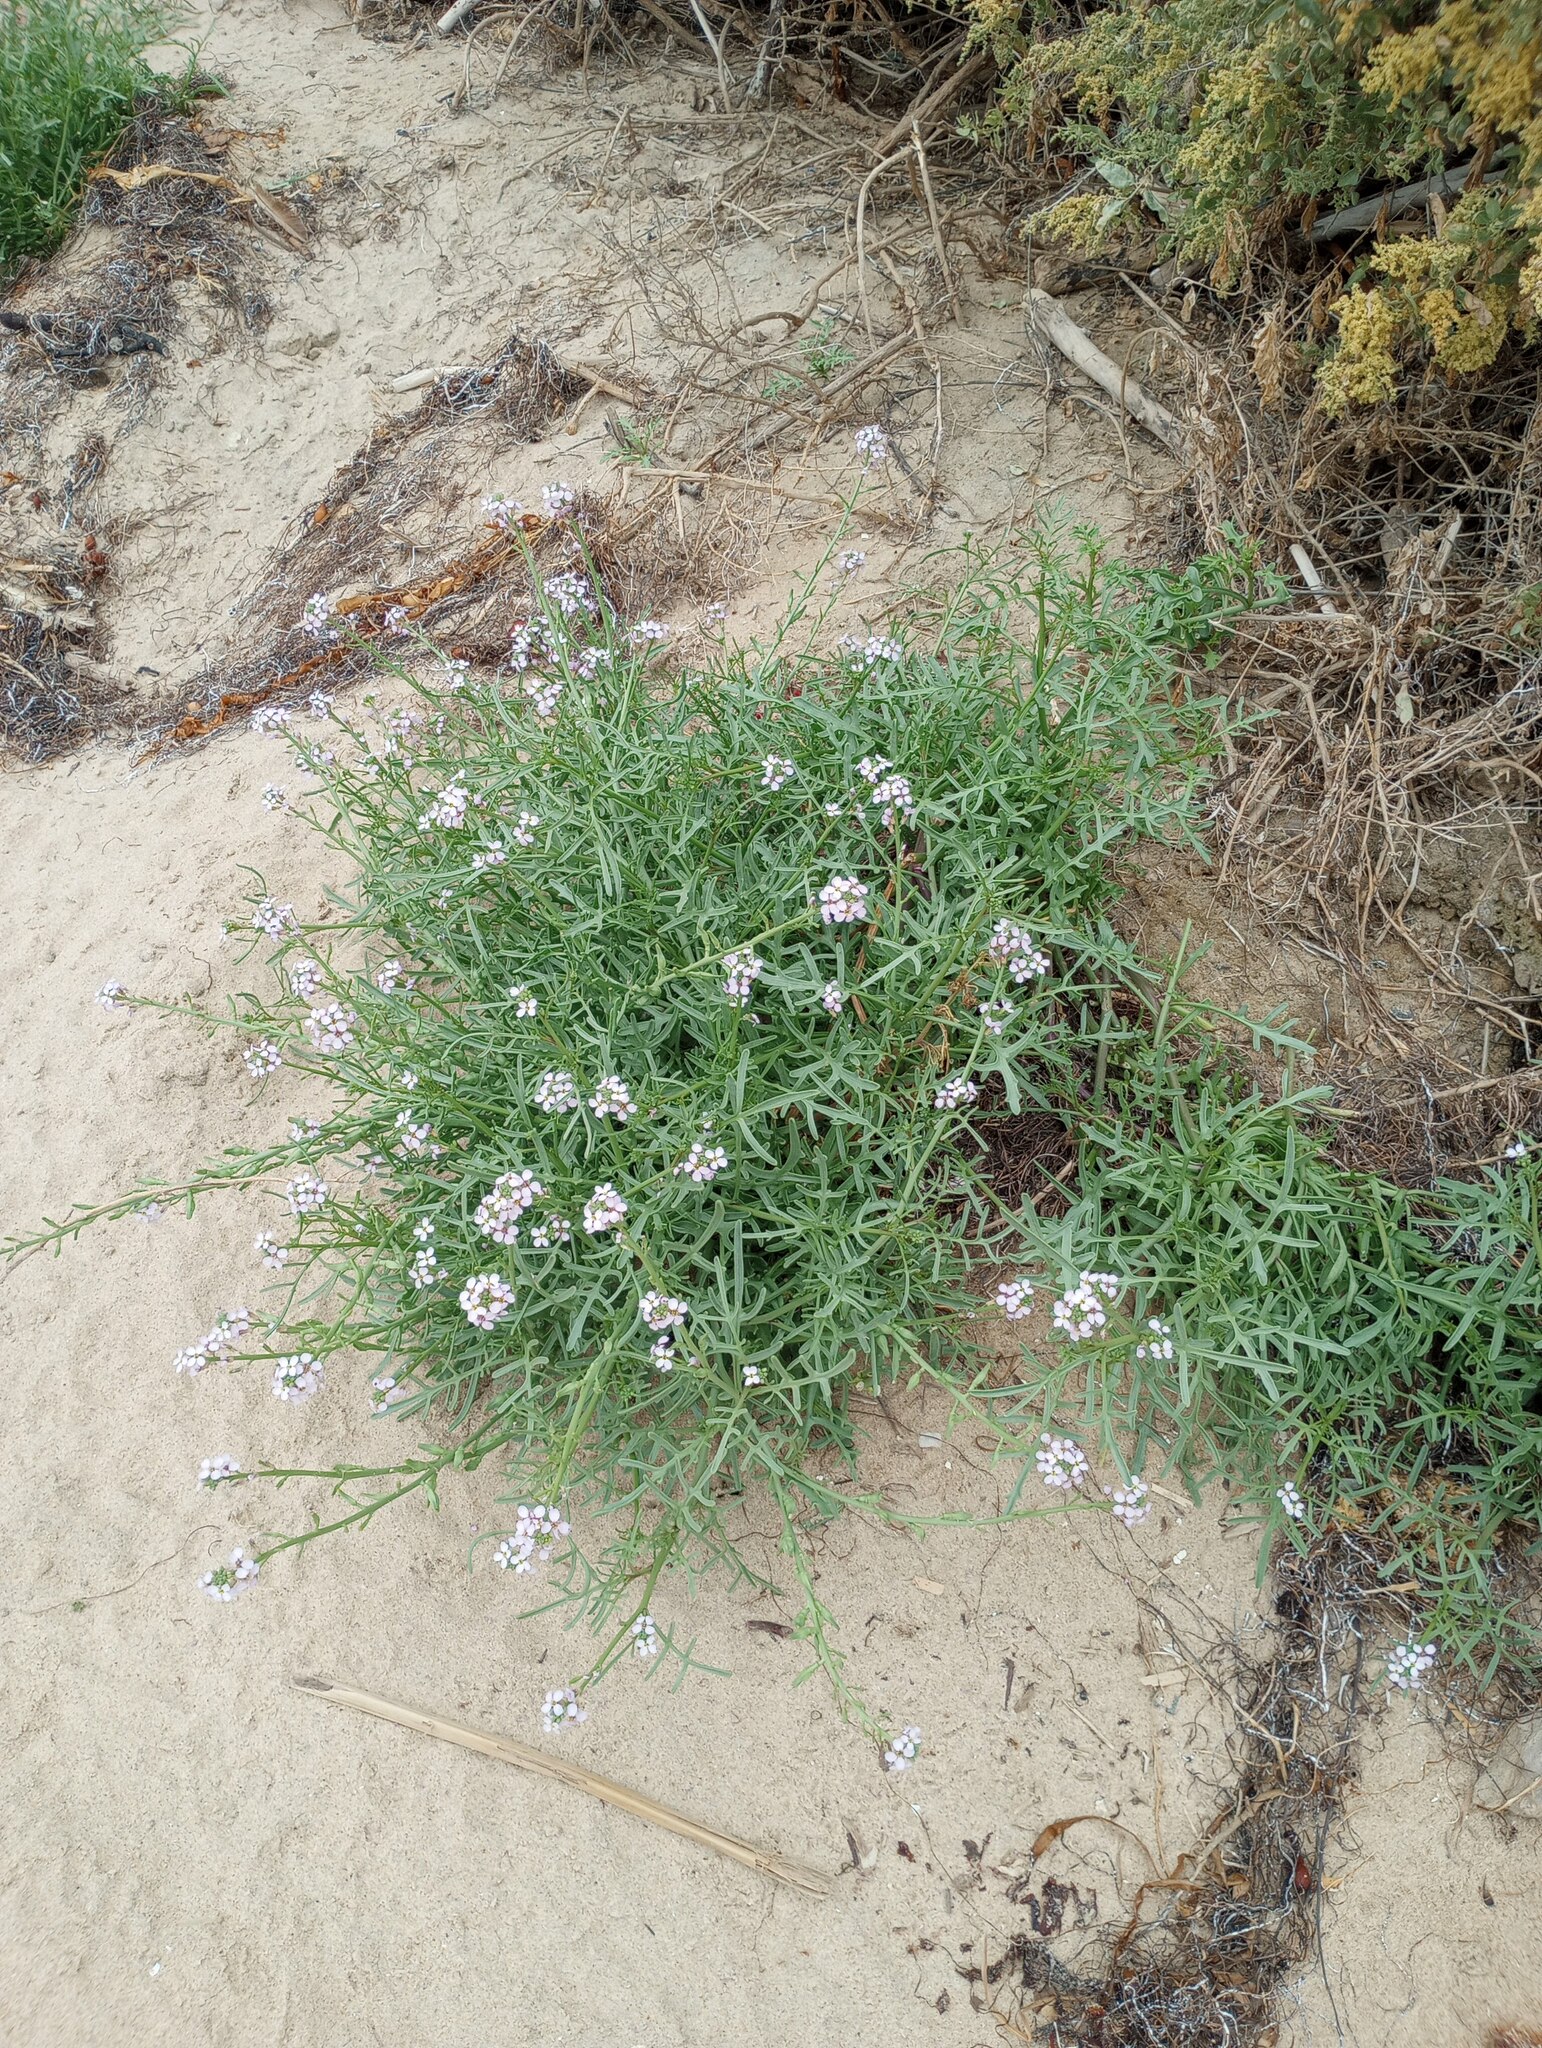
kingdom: Plantae
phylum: Tracheophyta
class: Magnoliopsida
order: Brassicales
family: Brassicaceae
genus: Cakile
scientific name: Cakile maritima
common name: Sea rocket
